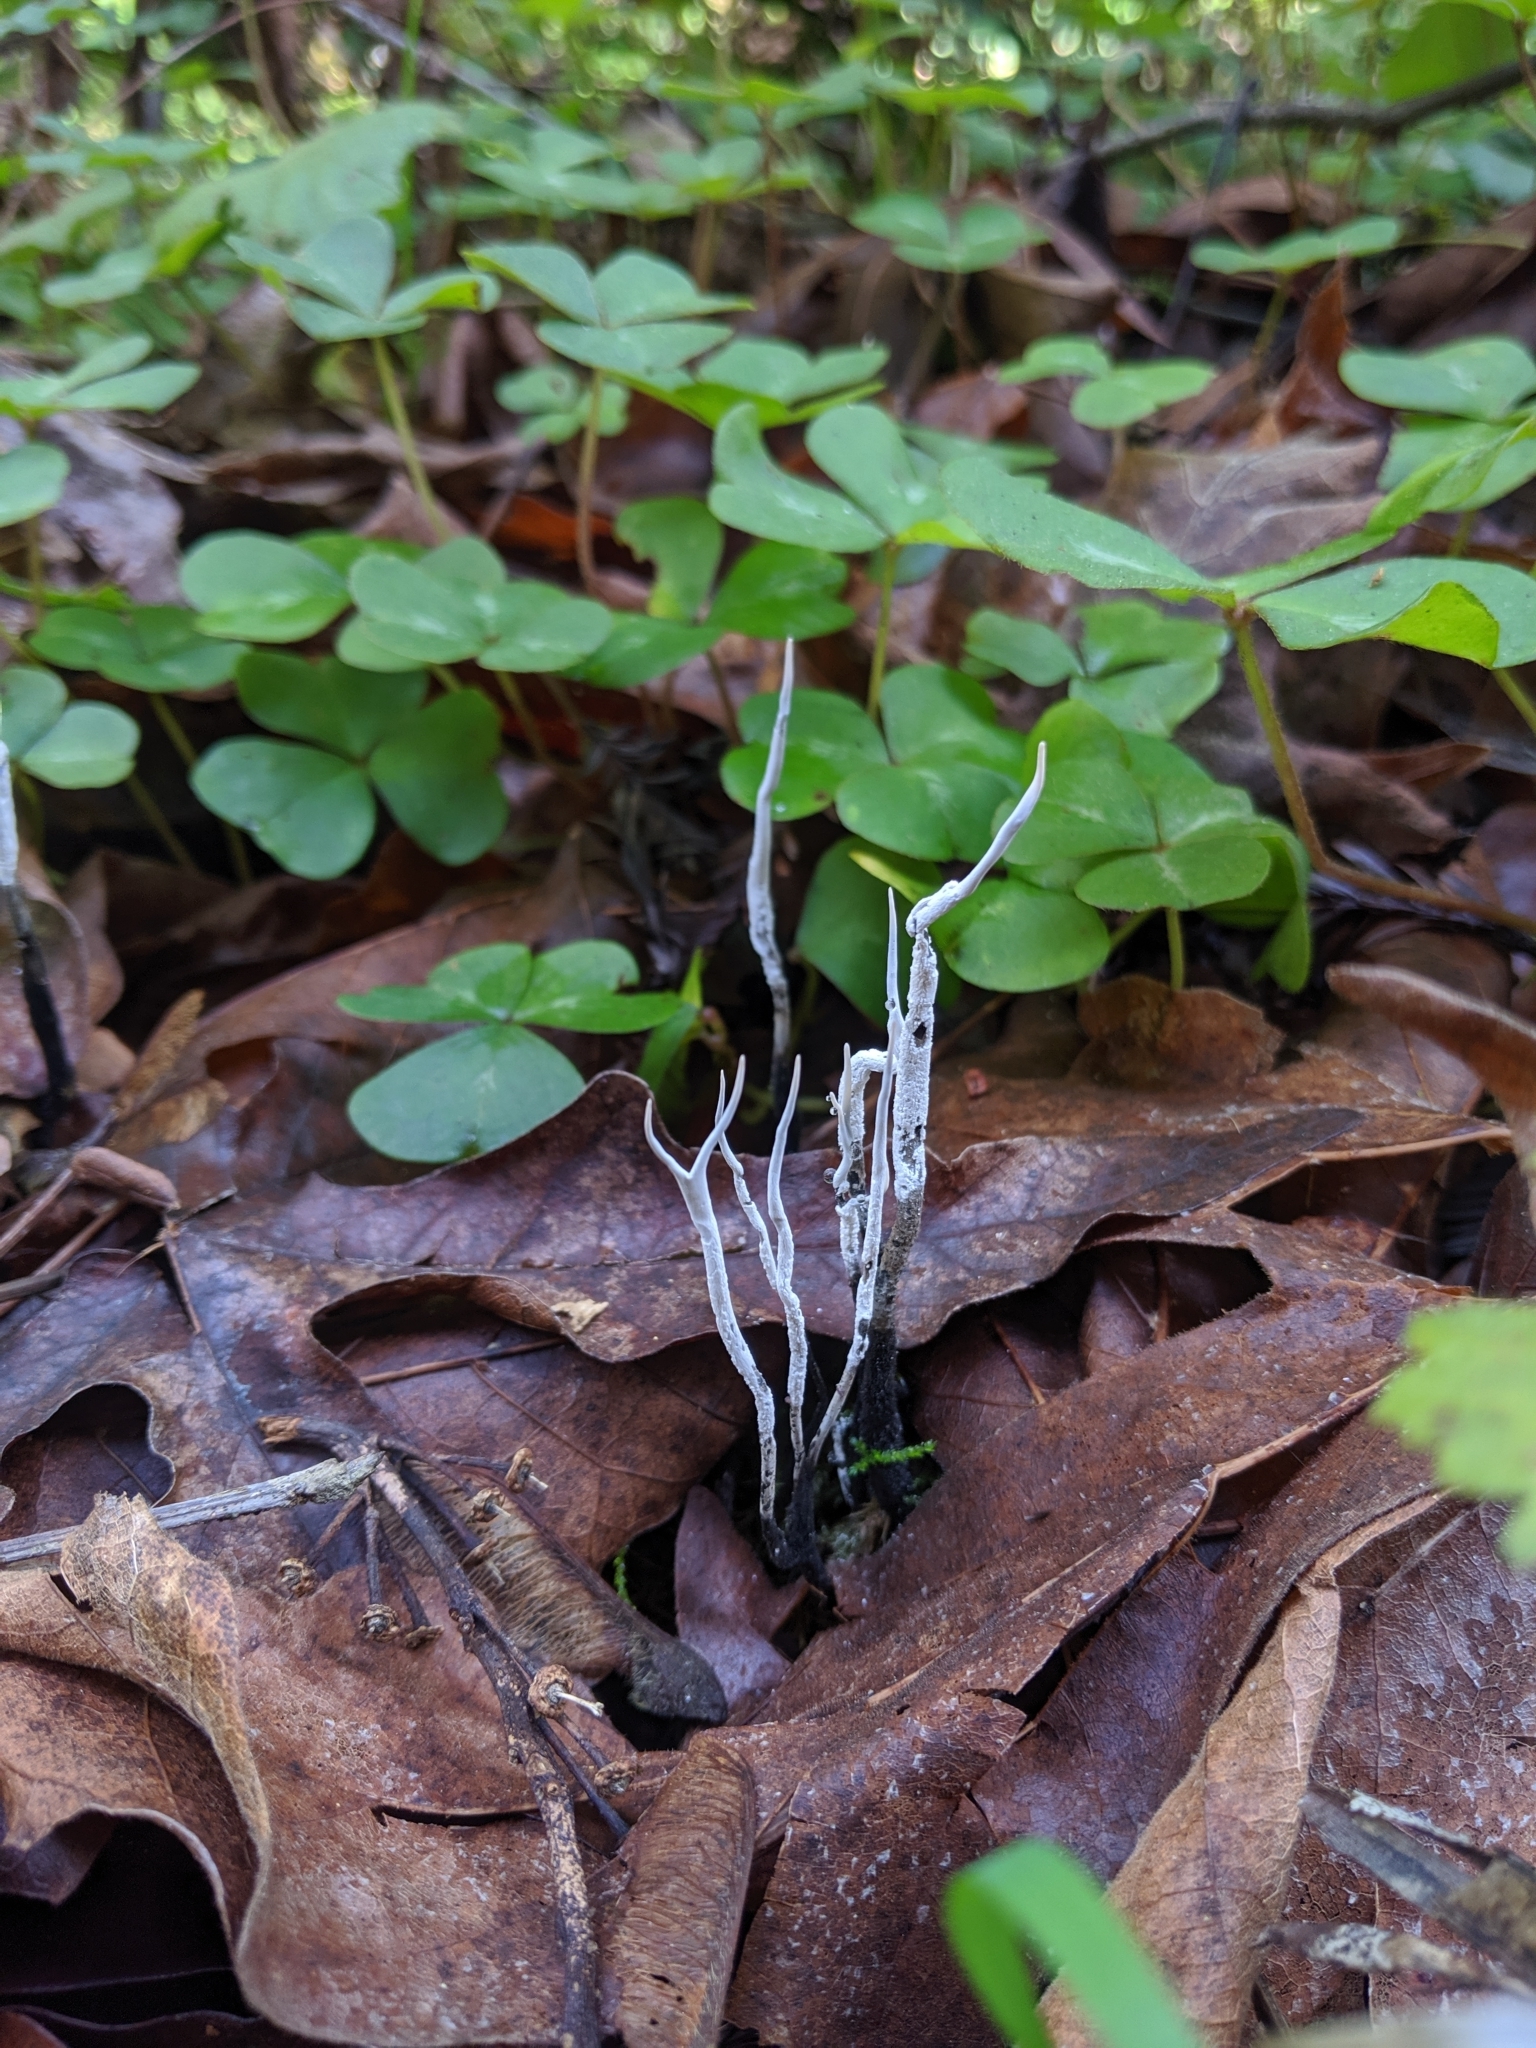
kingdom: Fungi
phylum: Ascomycota
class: Sordariomycetes
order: Xylariales
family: Xylariaceae
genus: Xylaria
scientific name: Xylaria hypoxylon
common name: Candle-snuff fungus
